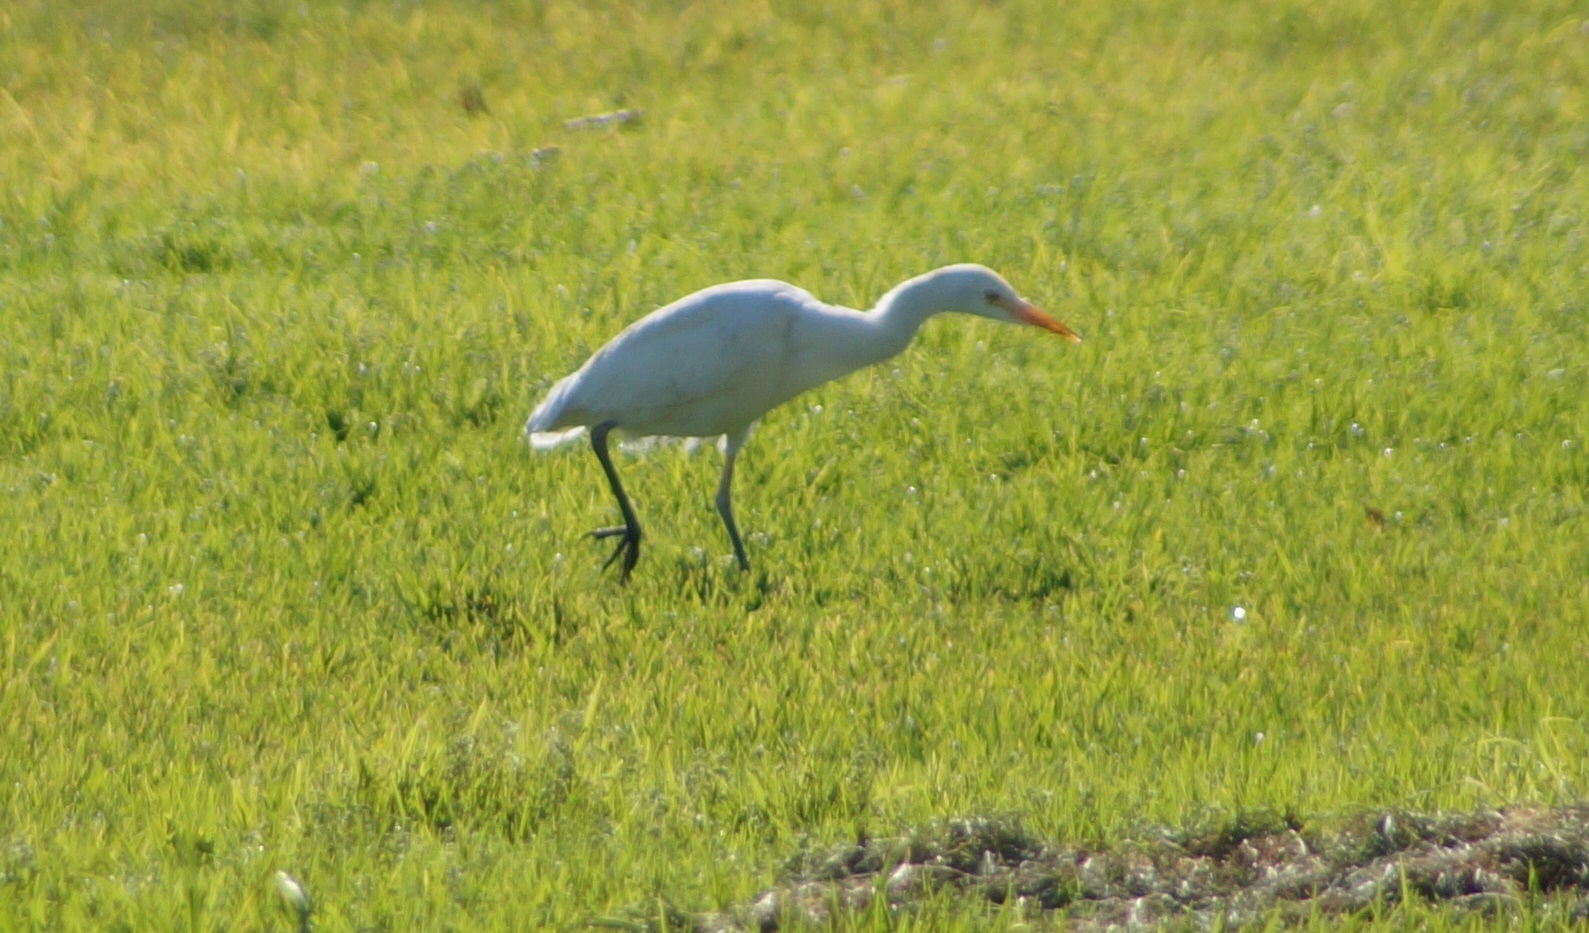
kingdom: Animalia
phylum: Chordata
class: Aves
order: Pelecaniformes
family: Ardeidae
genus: Bubulcus
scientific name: Bubulcus ibis
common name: Cattle egret
